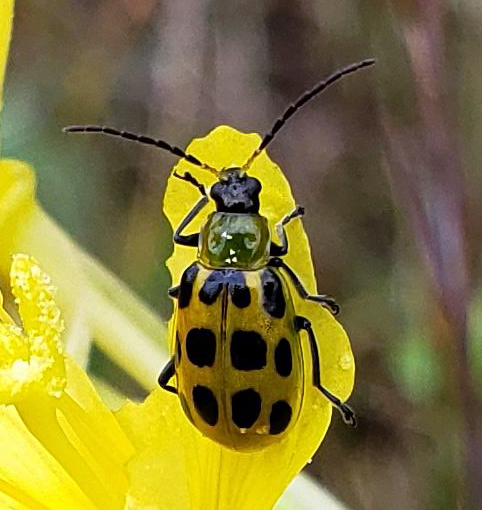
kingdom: Animalia
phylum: Arthropoda
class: Insecta
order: Coleoptera
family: Chrysomelidae
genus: Diabrotica
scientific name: Diabrotica undecimpunctata
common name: Spotted cucumber beetle
